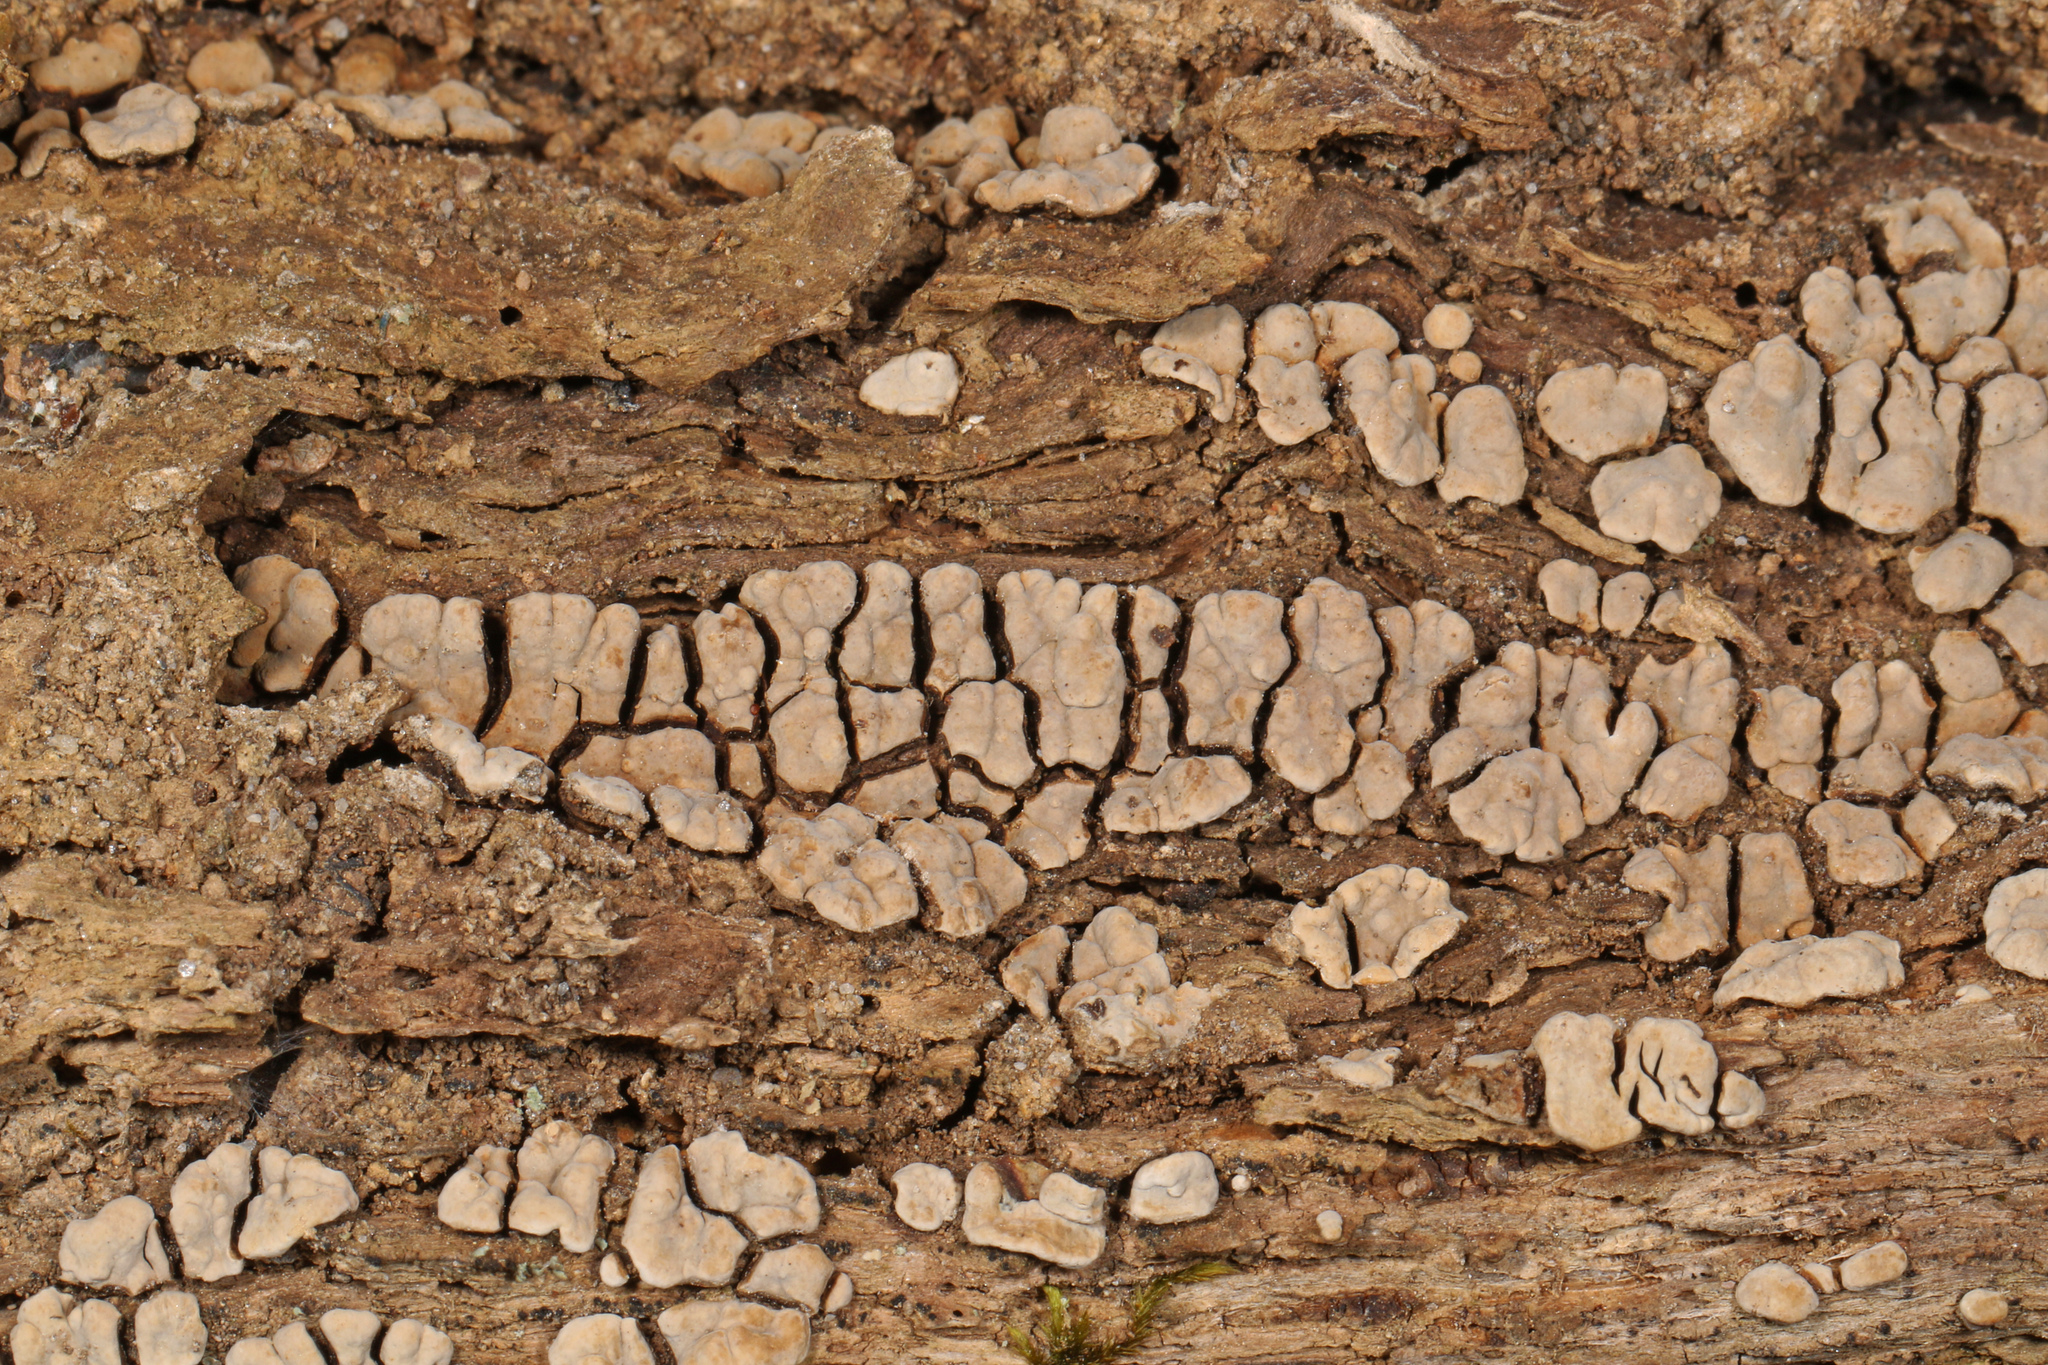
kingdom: Fungi
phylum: Basidiomycota
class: Agaricomycetes
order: Russulales
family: Stereaceae
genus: Xylobolus
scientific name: Xylobolus frustulatus
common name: Ceramic parchment
